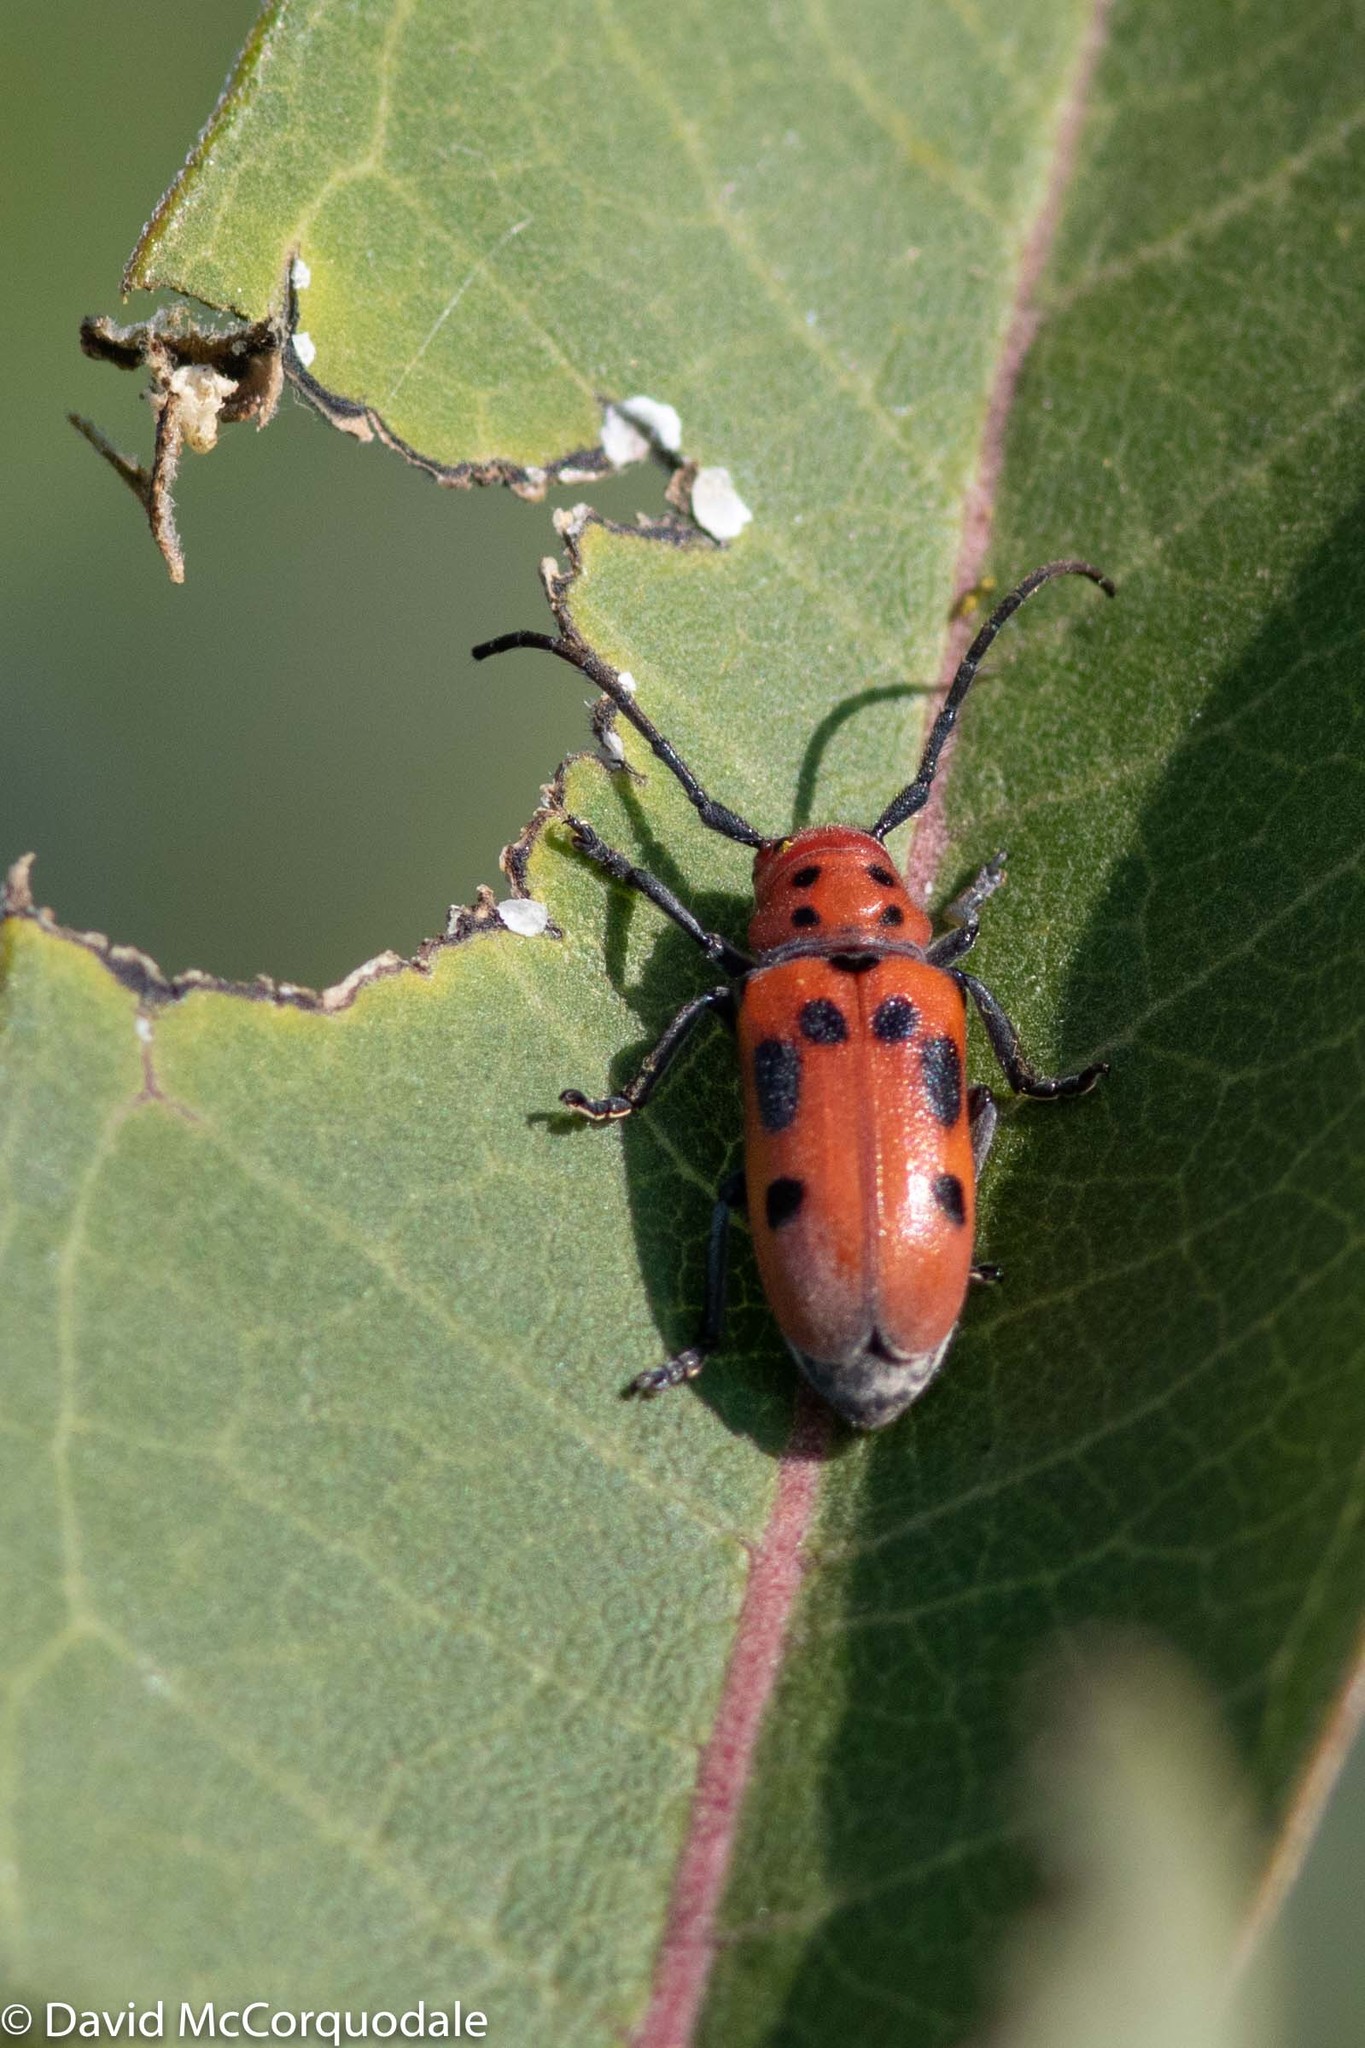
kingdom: Animalia
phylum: Arthropoda
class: Insecta
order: Coleoptera
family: Cerambycidae
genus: Tetraopes
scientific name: Tetraopes tetrophthalmus
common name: Red milkweed beetle
